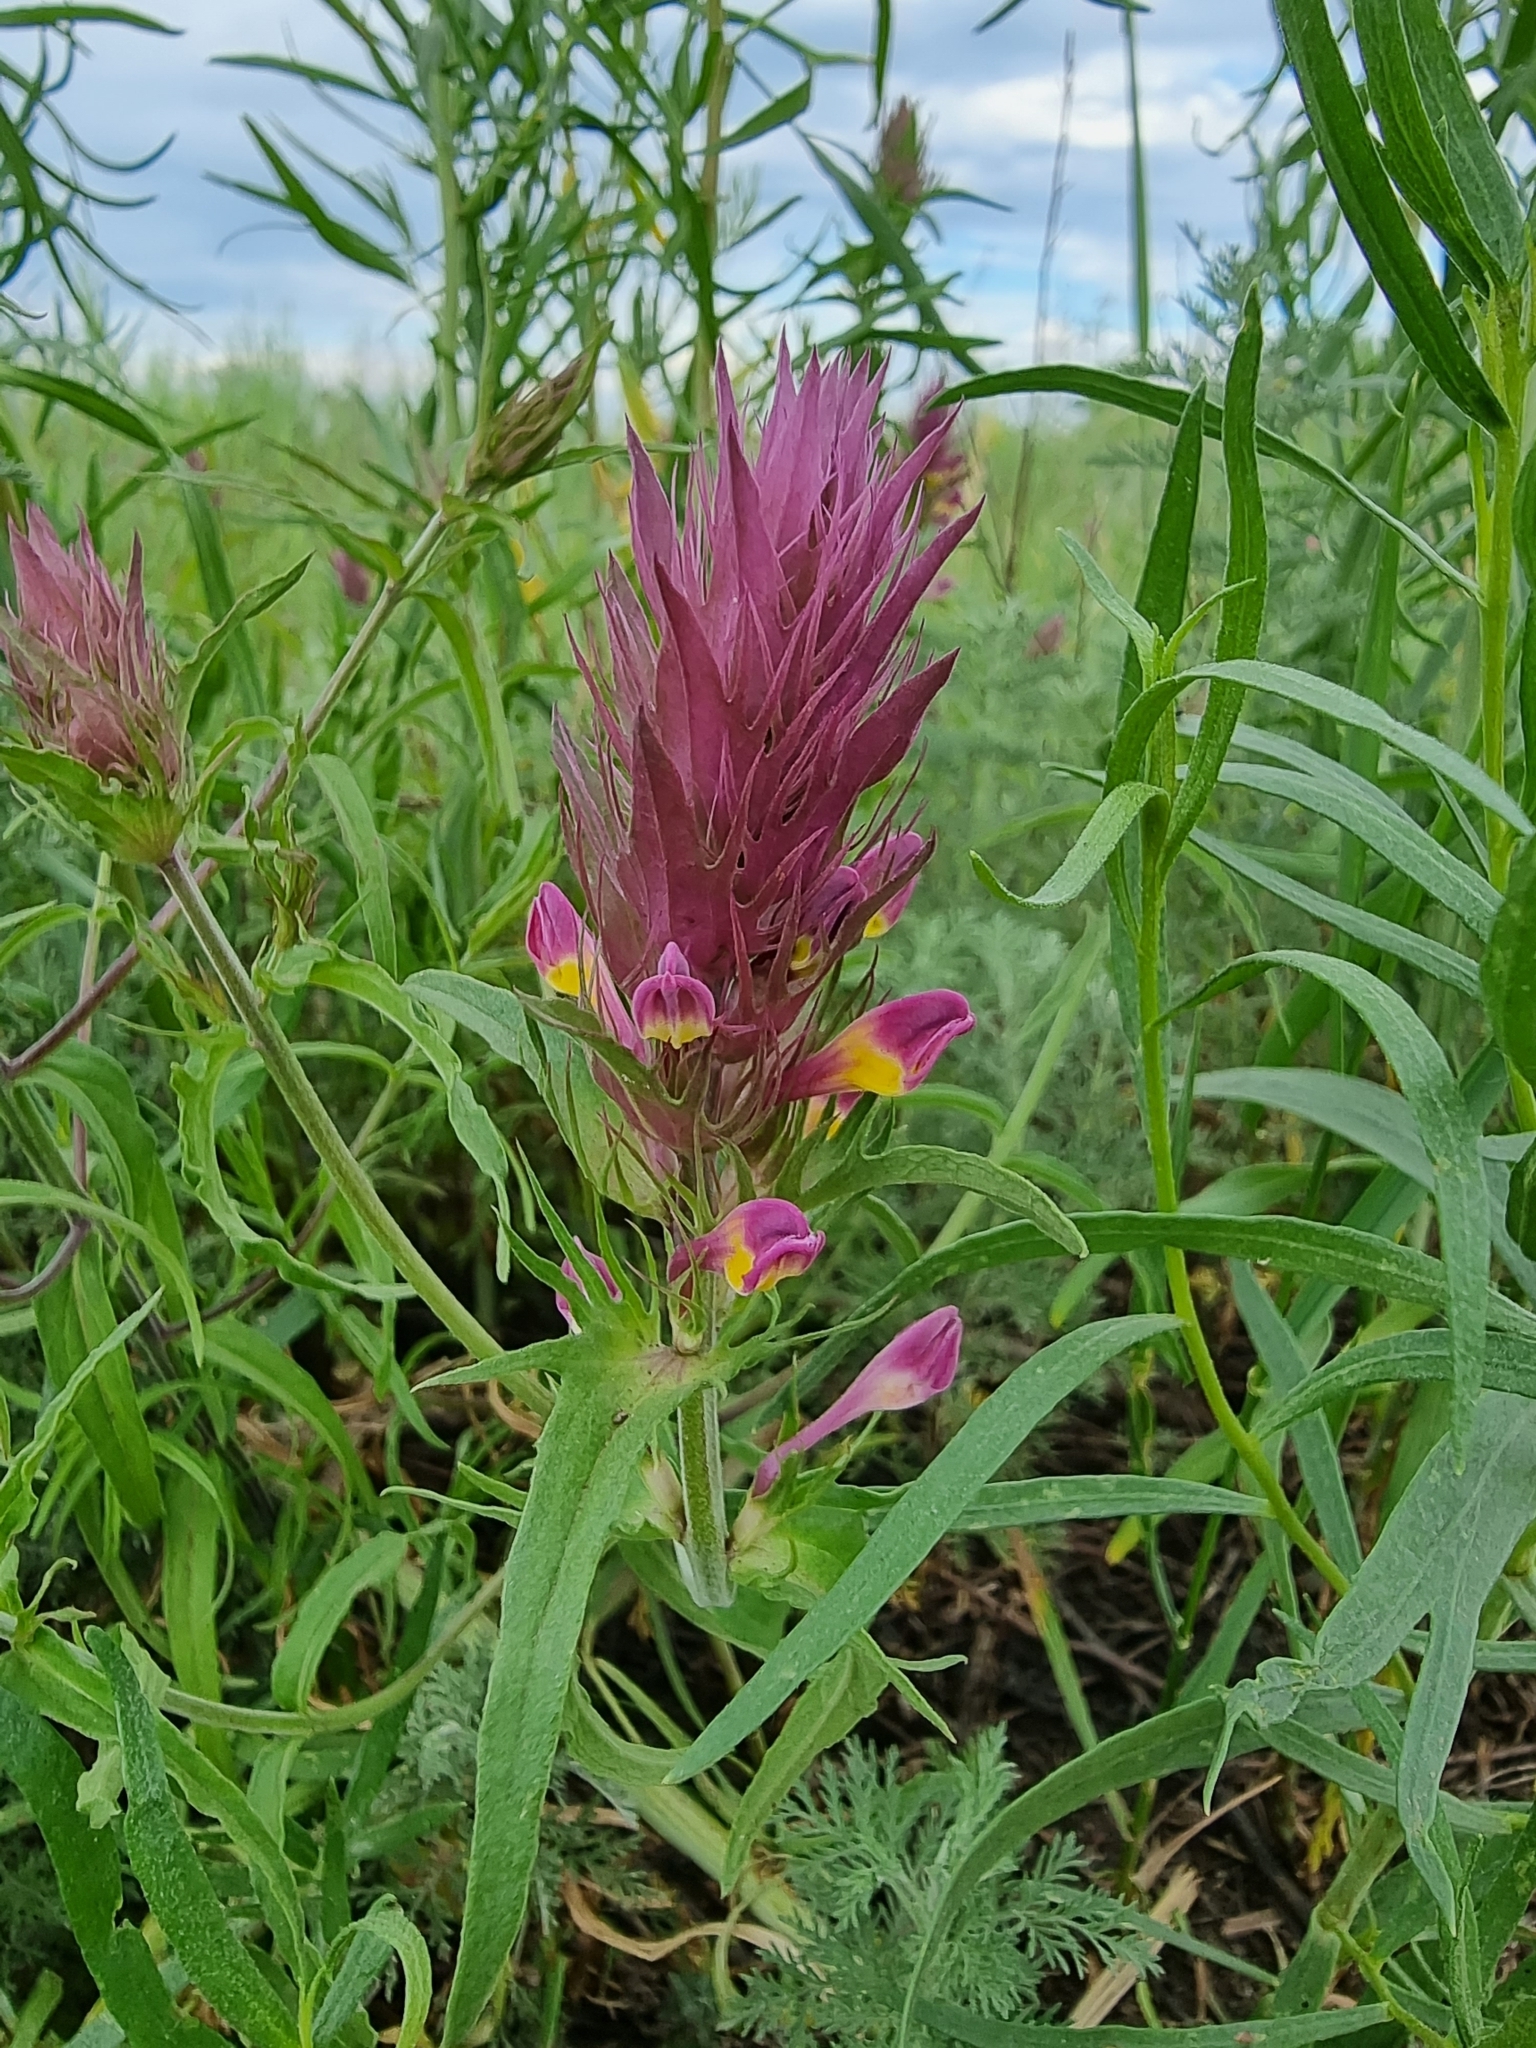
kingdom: Plantae
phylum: Tracheophyta
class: Magnoliopsida
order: Lamiales
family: Orobanchaceae
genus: Melampyrum
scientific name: Melampyrum arvense
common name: Field cow-wheat
